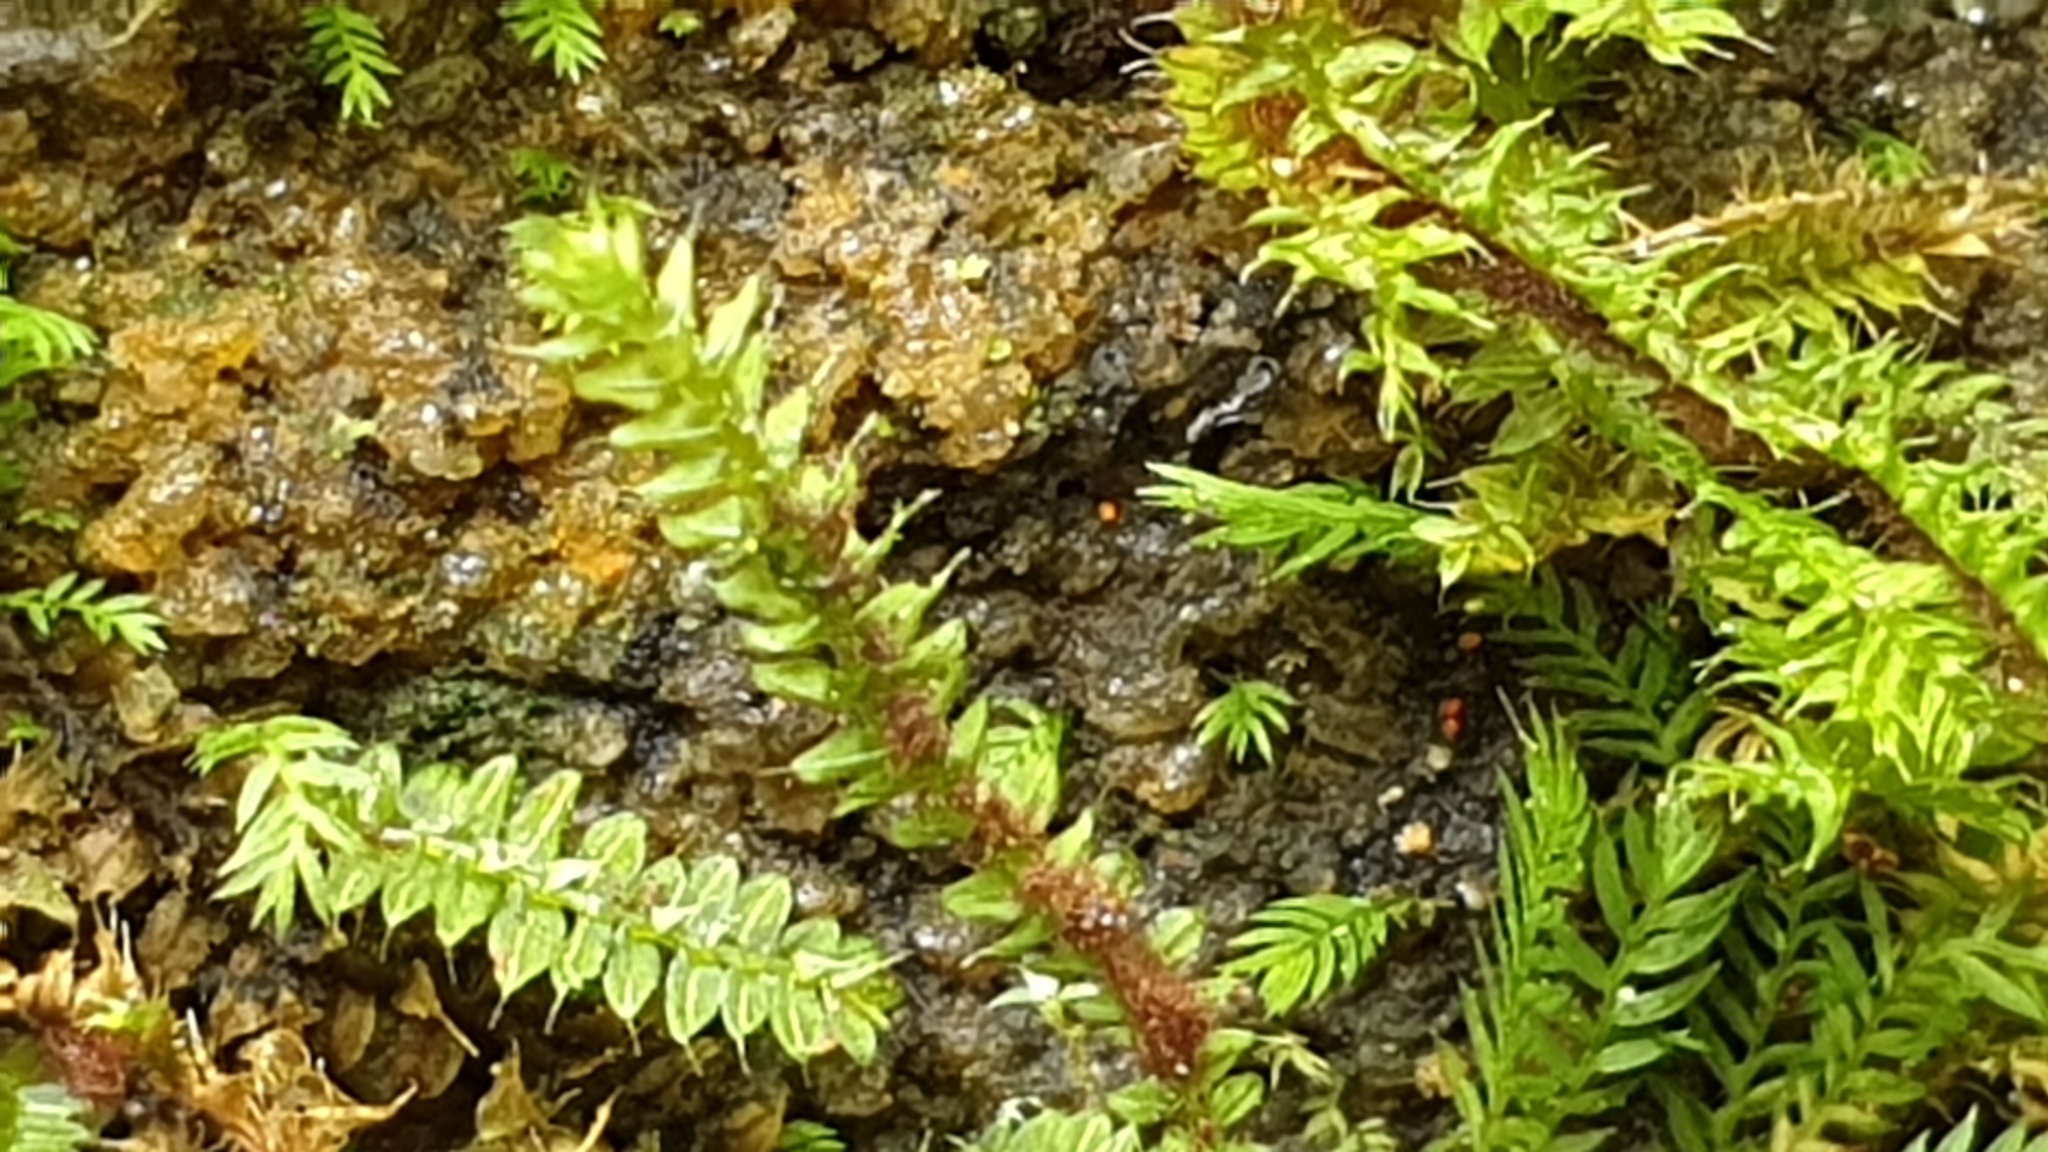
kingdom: Plantae
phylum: Bryophyta
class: Bryopsida
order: Hypnodendrales
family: Racopilaceae
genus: Racopilum
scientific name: Racopilum cuspidigerum
